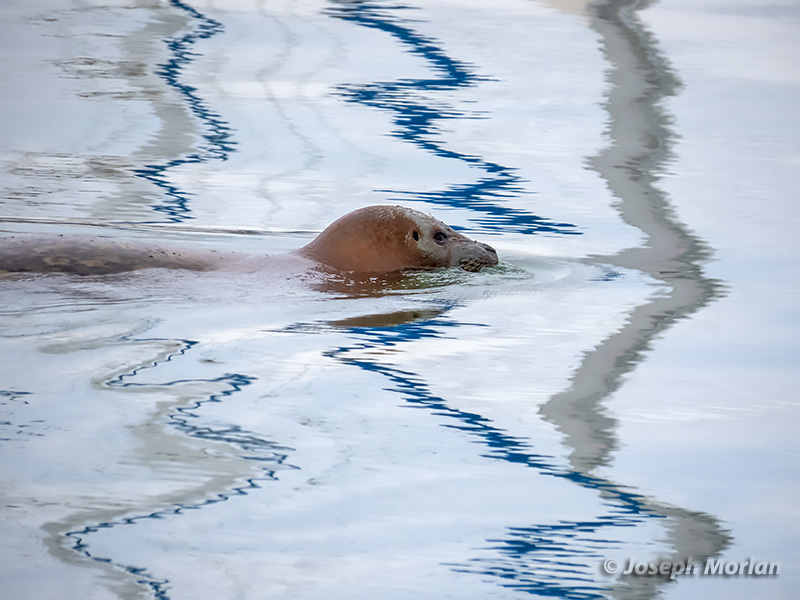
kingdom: Animalia
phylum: Chordata
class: Mammalia
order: Carnivora
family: Phocidae
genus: Phoca
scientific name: Phoca vitulina
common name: Harbor seal
